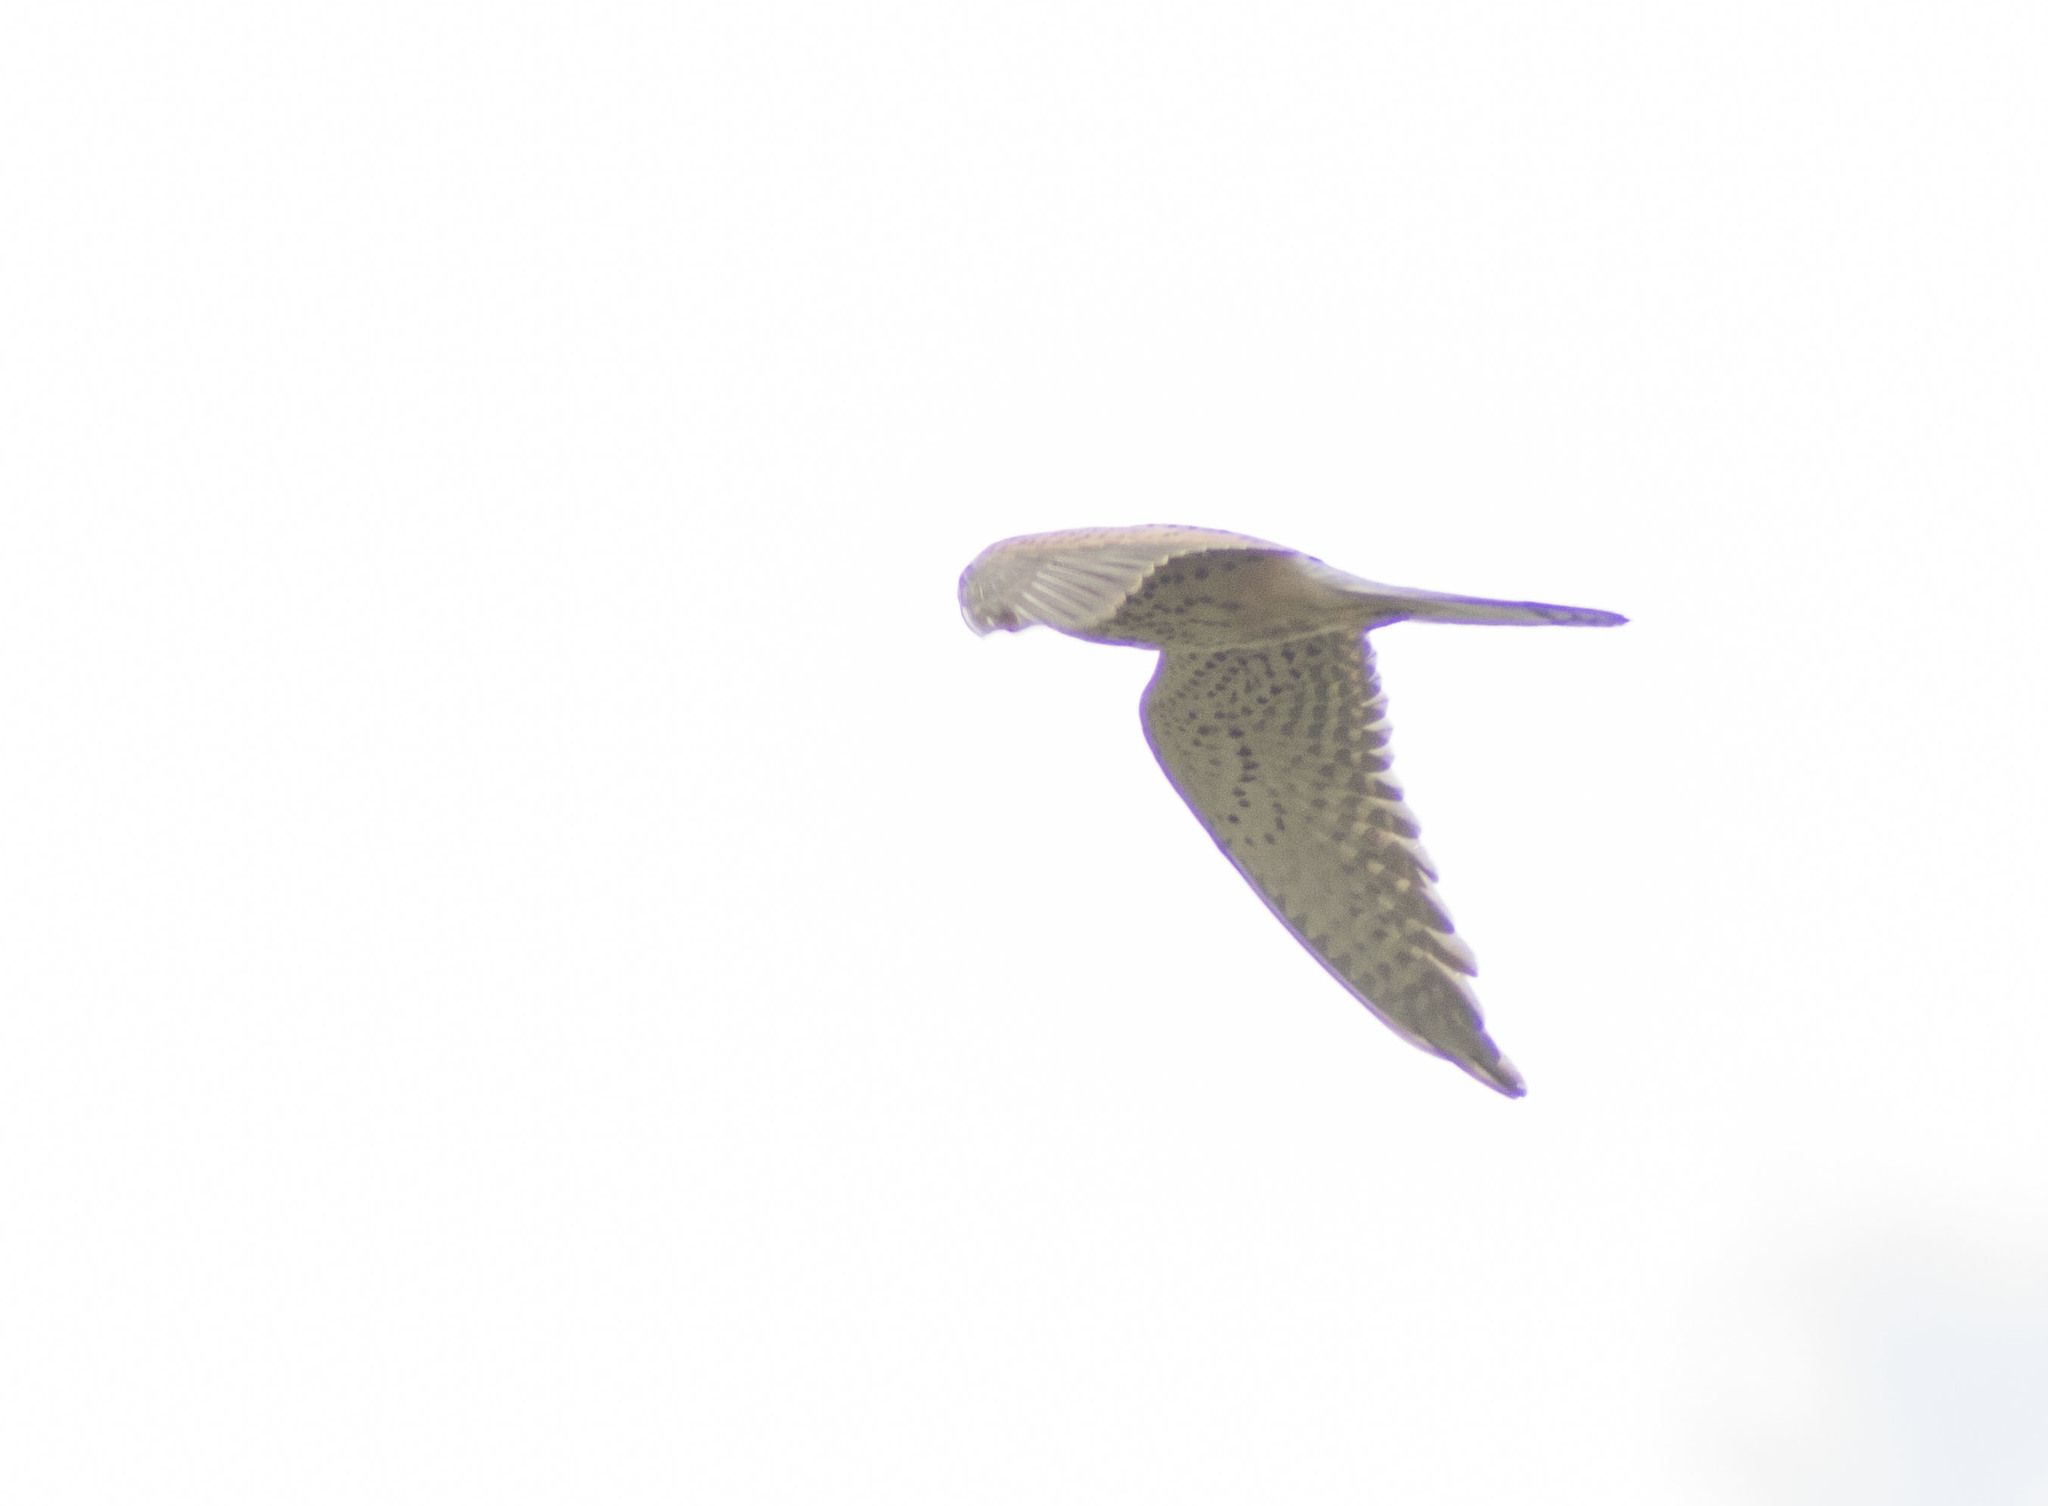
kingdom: Animalia
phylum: Chordata
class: Aves
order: Falconiformes
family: Falconidae
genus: Falco
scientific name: Falco tinnunculus
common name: Common kestrel
